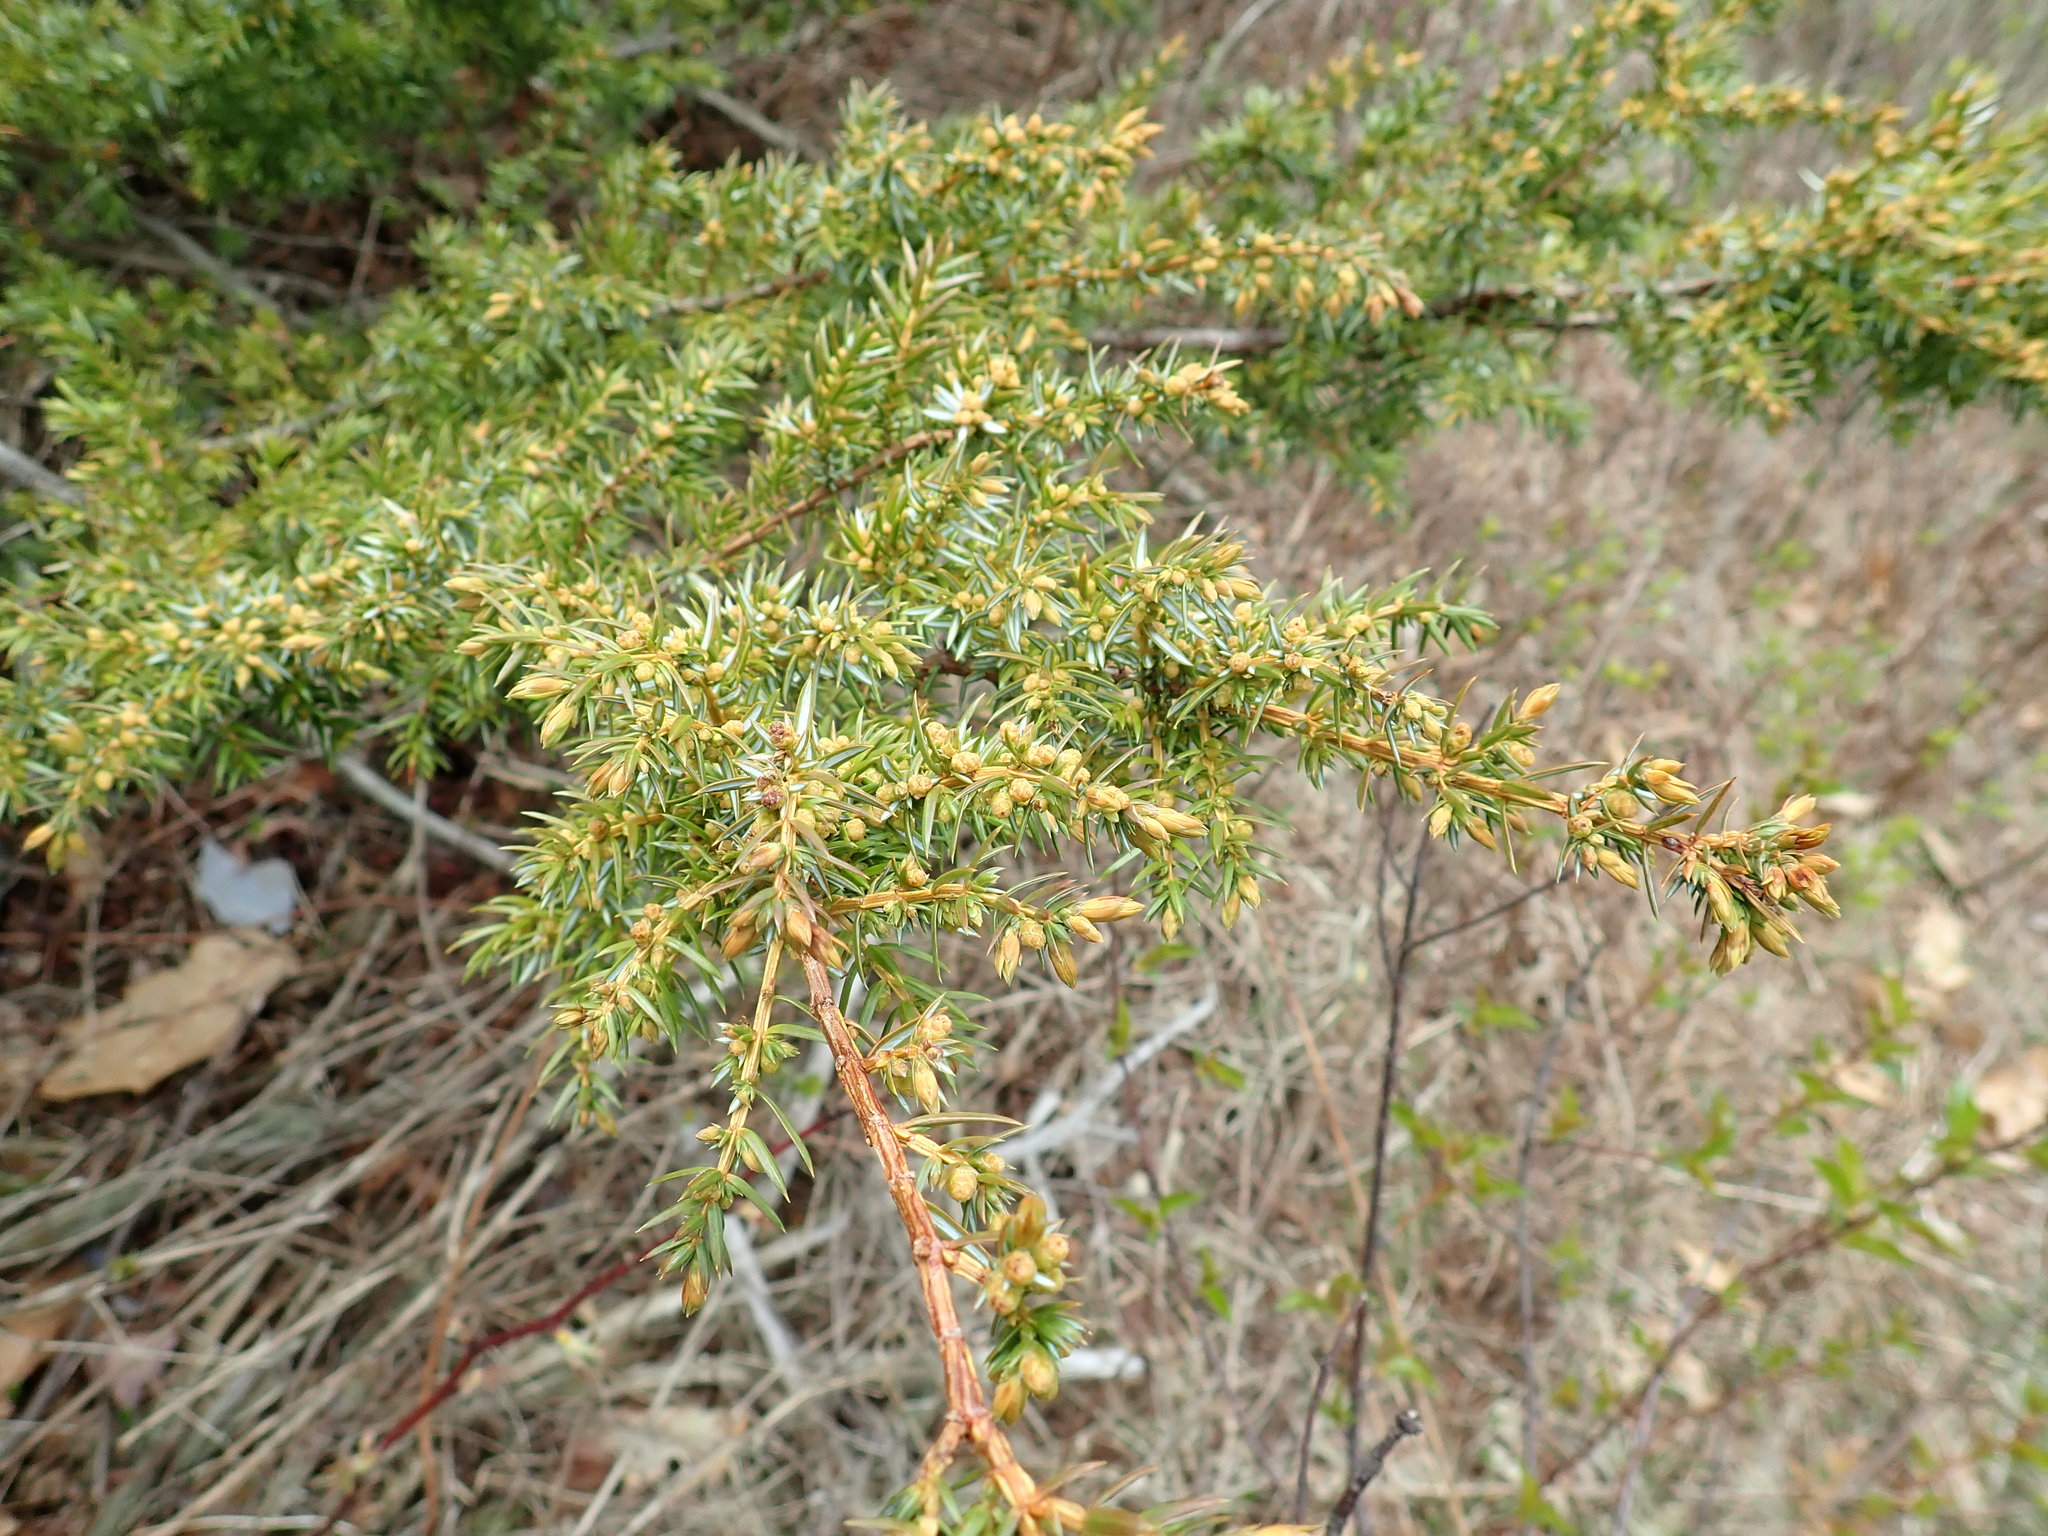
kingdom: Plantae
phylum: Tracheophyta
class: Pinopsida
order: Pinales
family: Cupressaceae
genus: Juniperus
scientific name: Juniperus communis
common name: Common juniper
